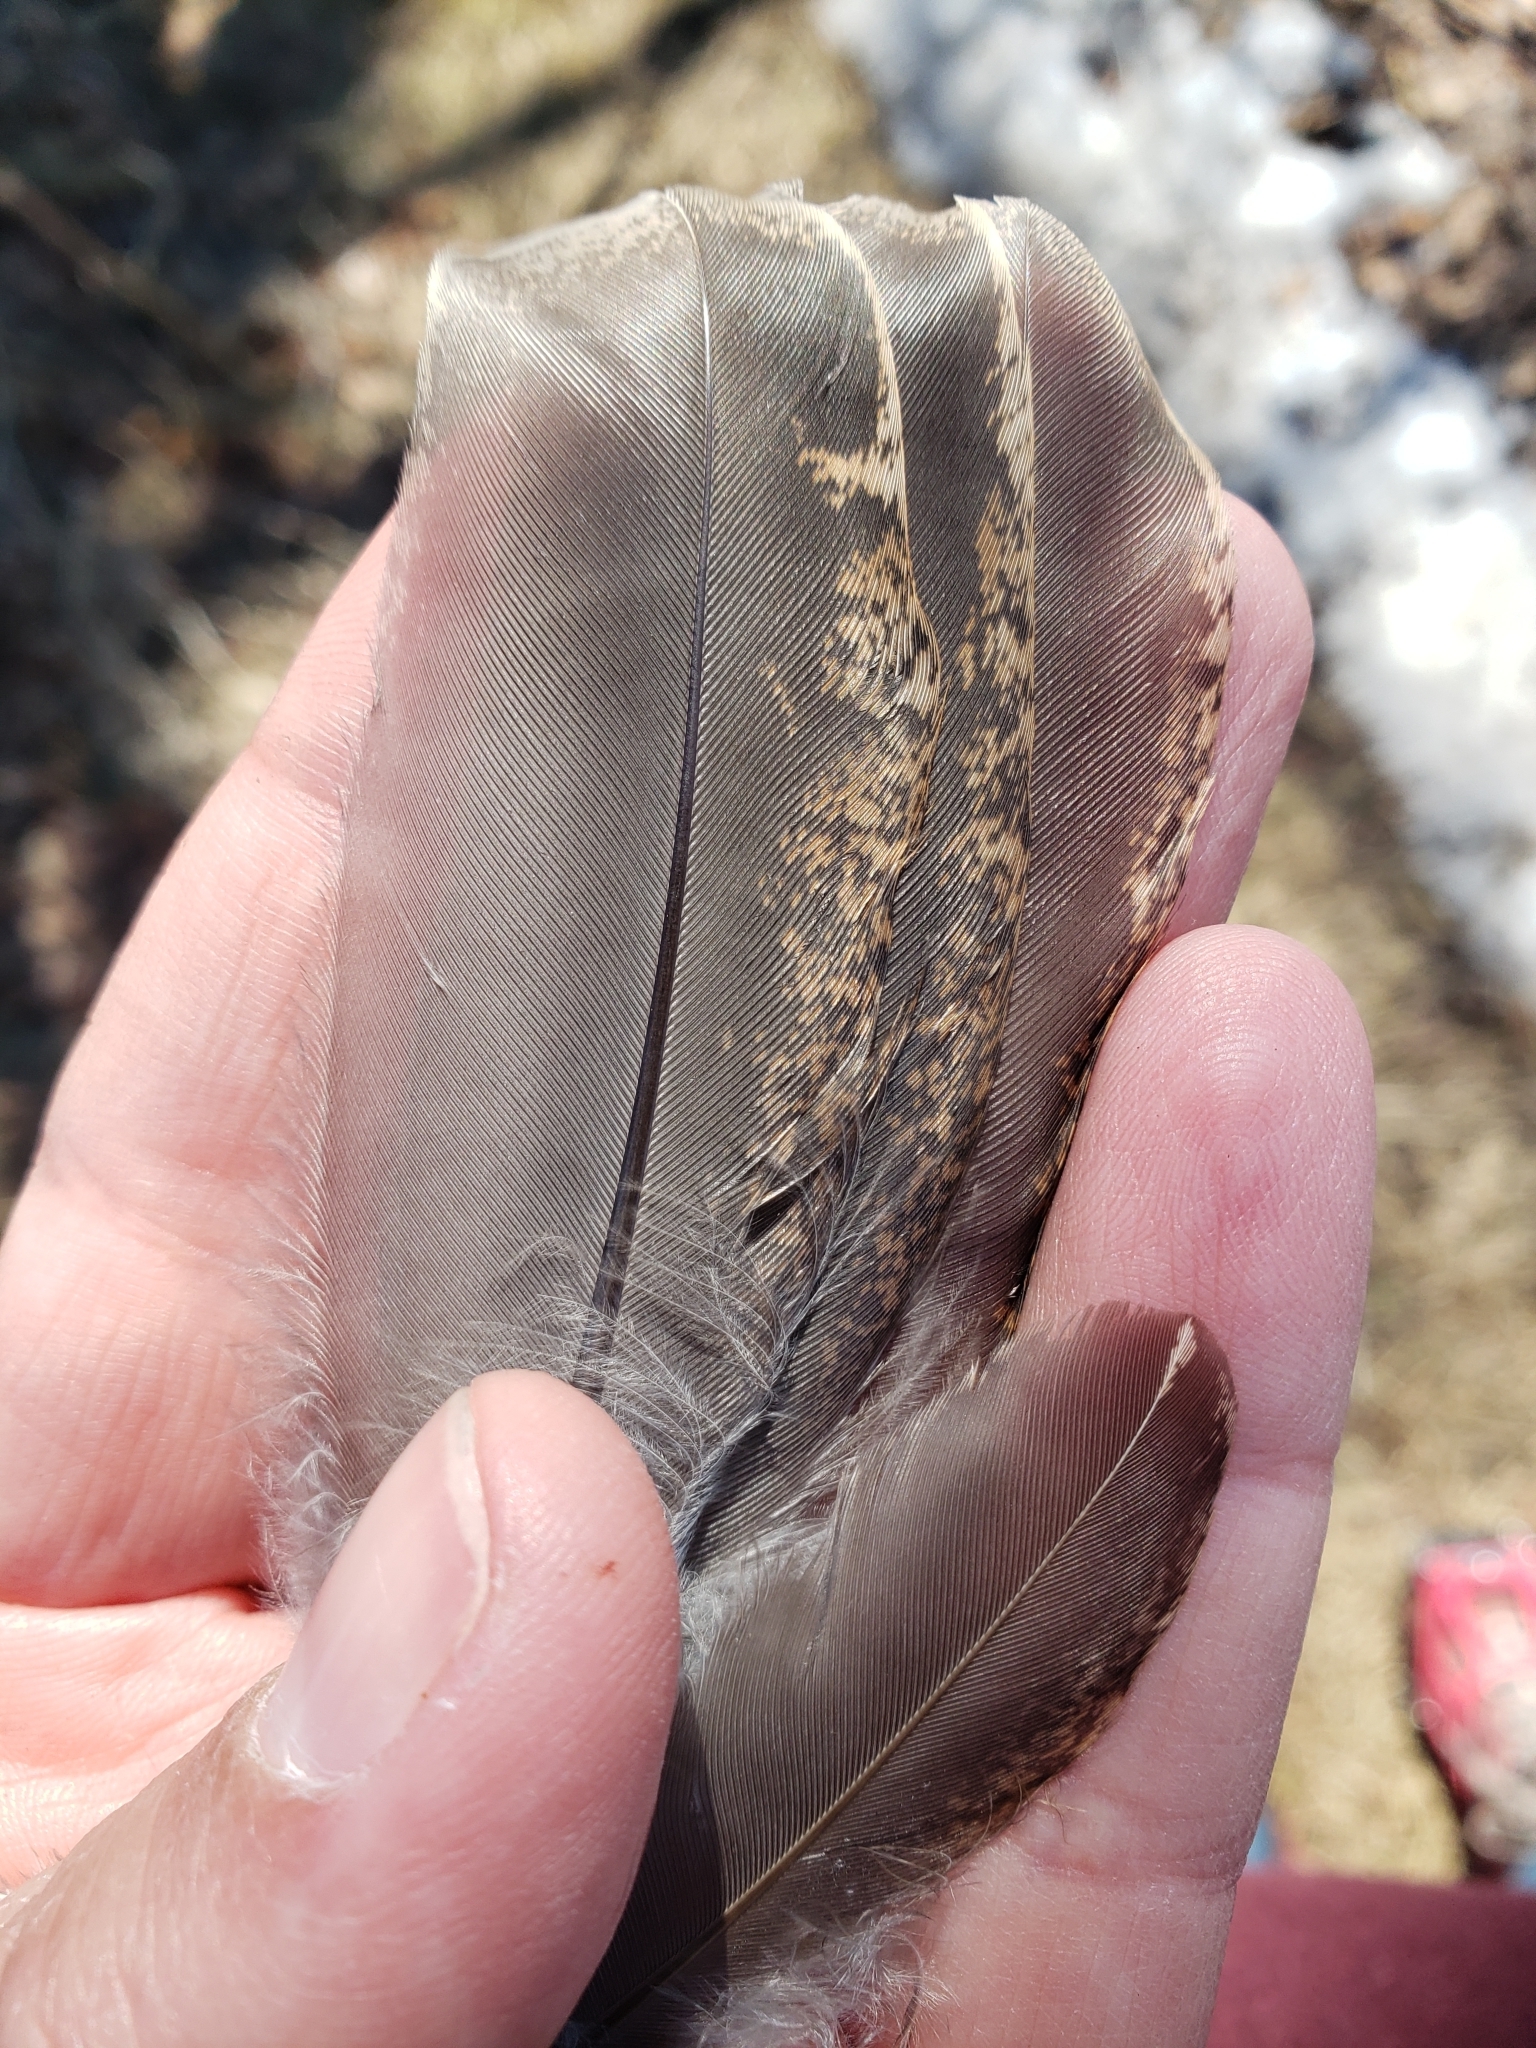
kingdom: Animalia
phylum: Chordata
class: Aves
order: Galliformes
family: Phasianidae
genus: Bonasa
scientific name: Bonasa umbellus
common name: Ruffed grouse
